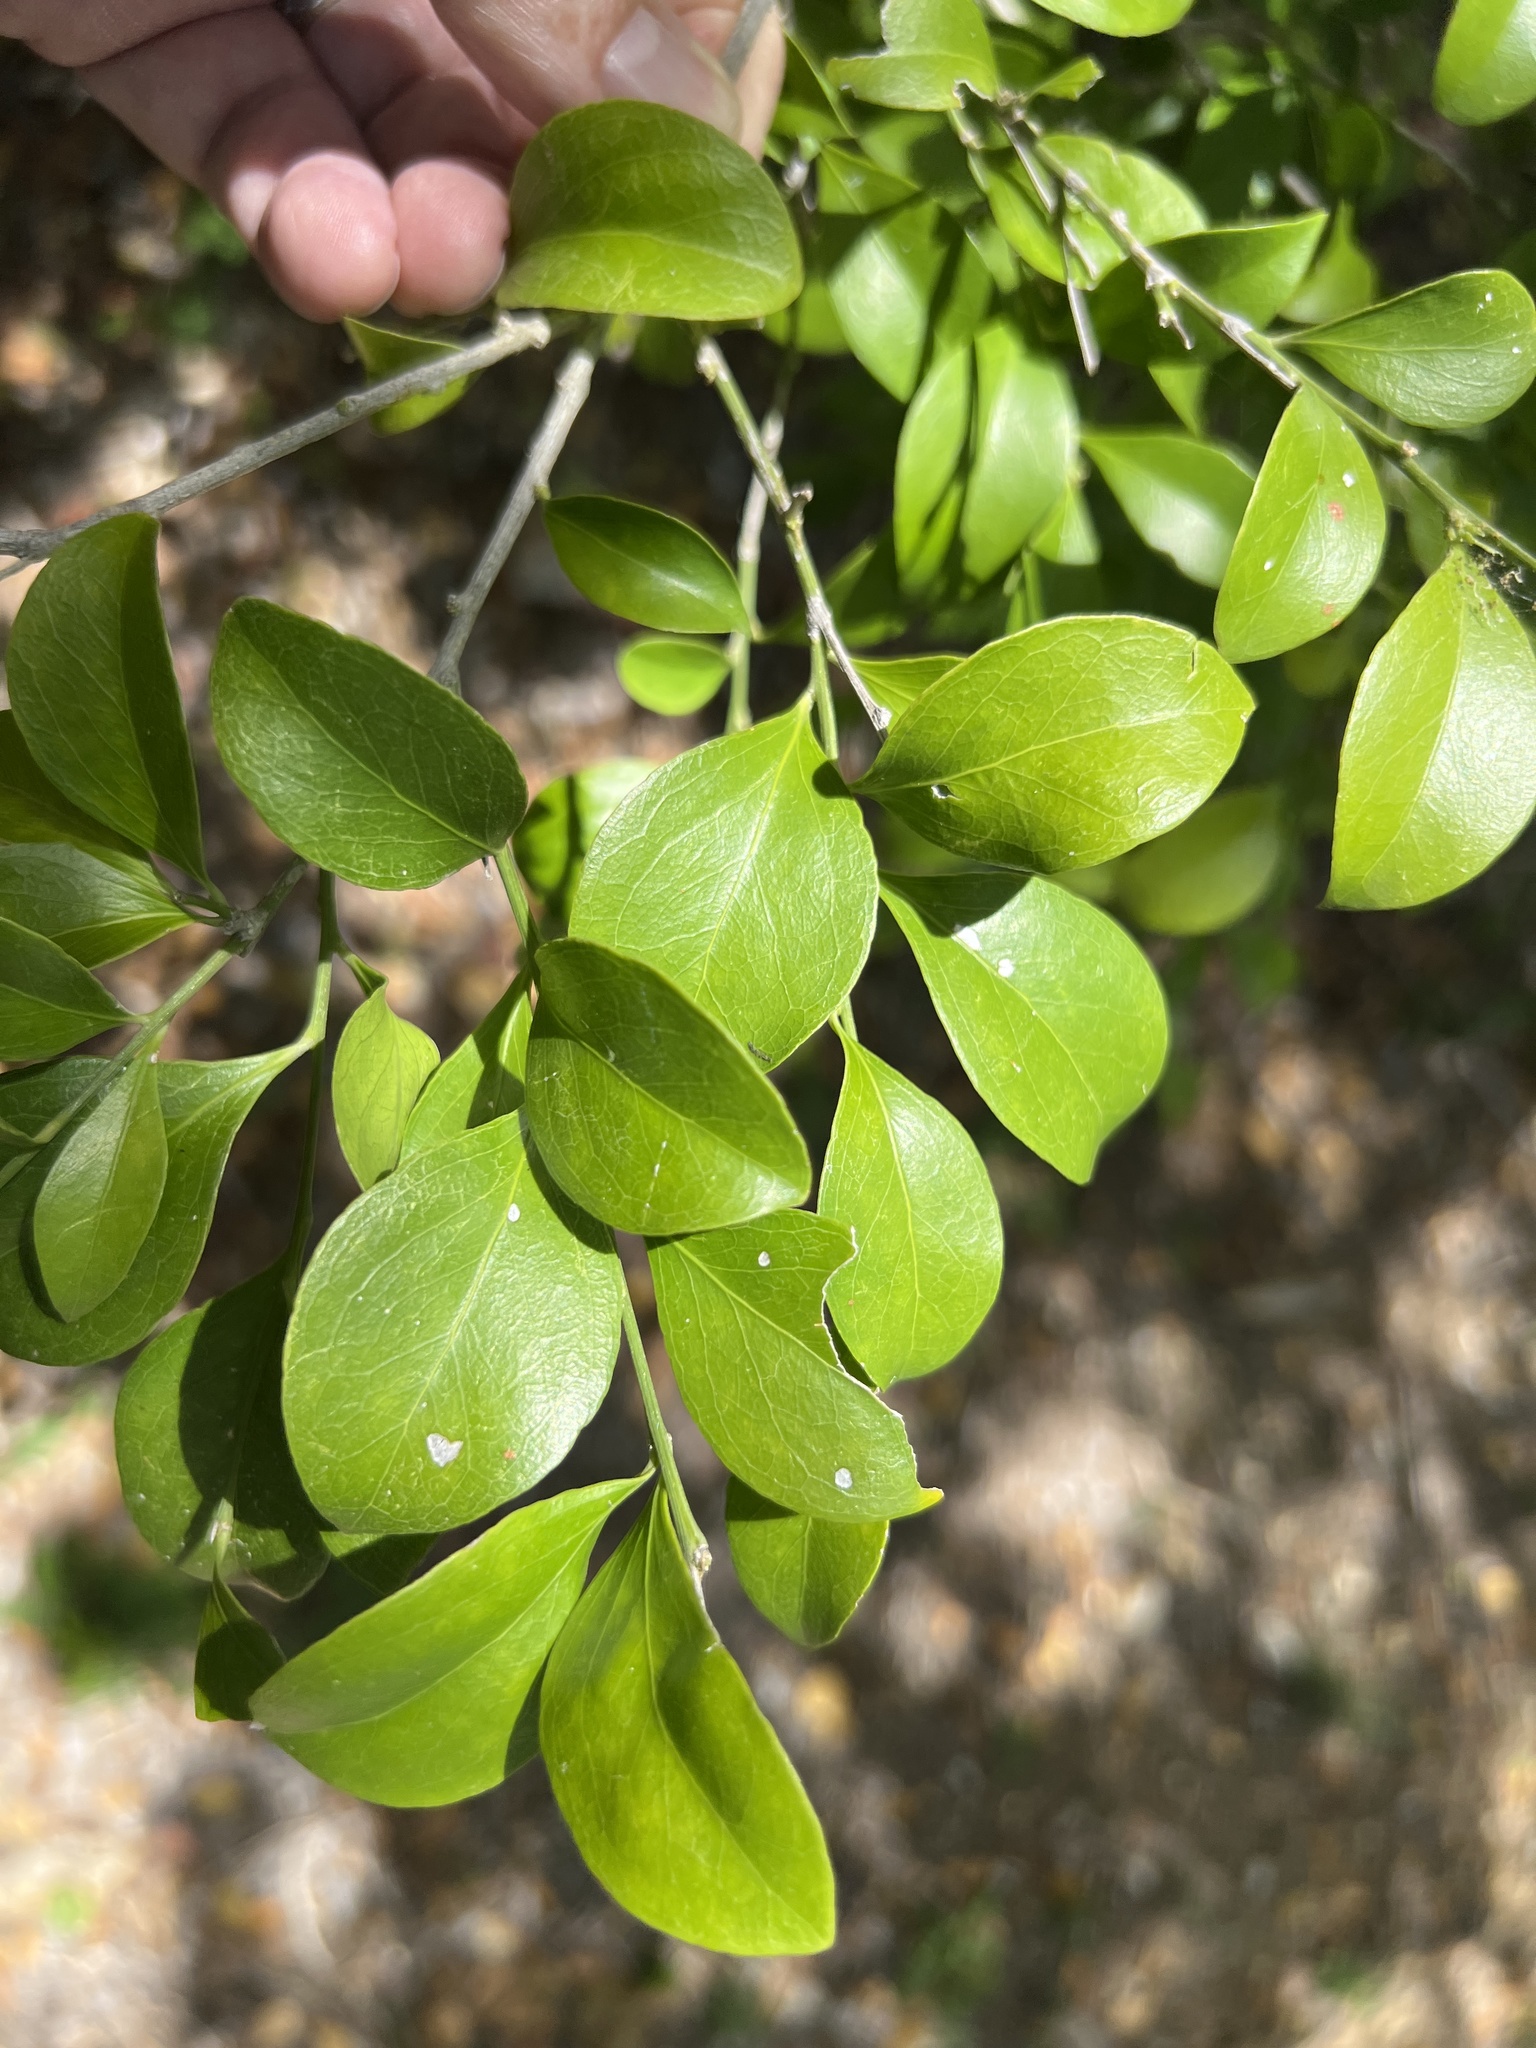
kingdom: Plantae
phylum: Tracheophyta
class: Magnoliopsida
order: Celastrales
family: Celastraceae
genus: Schaefferia
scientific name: Schaefferia frutescens
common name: Boxwood
